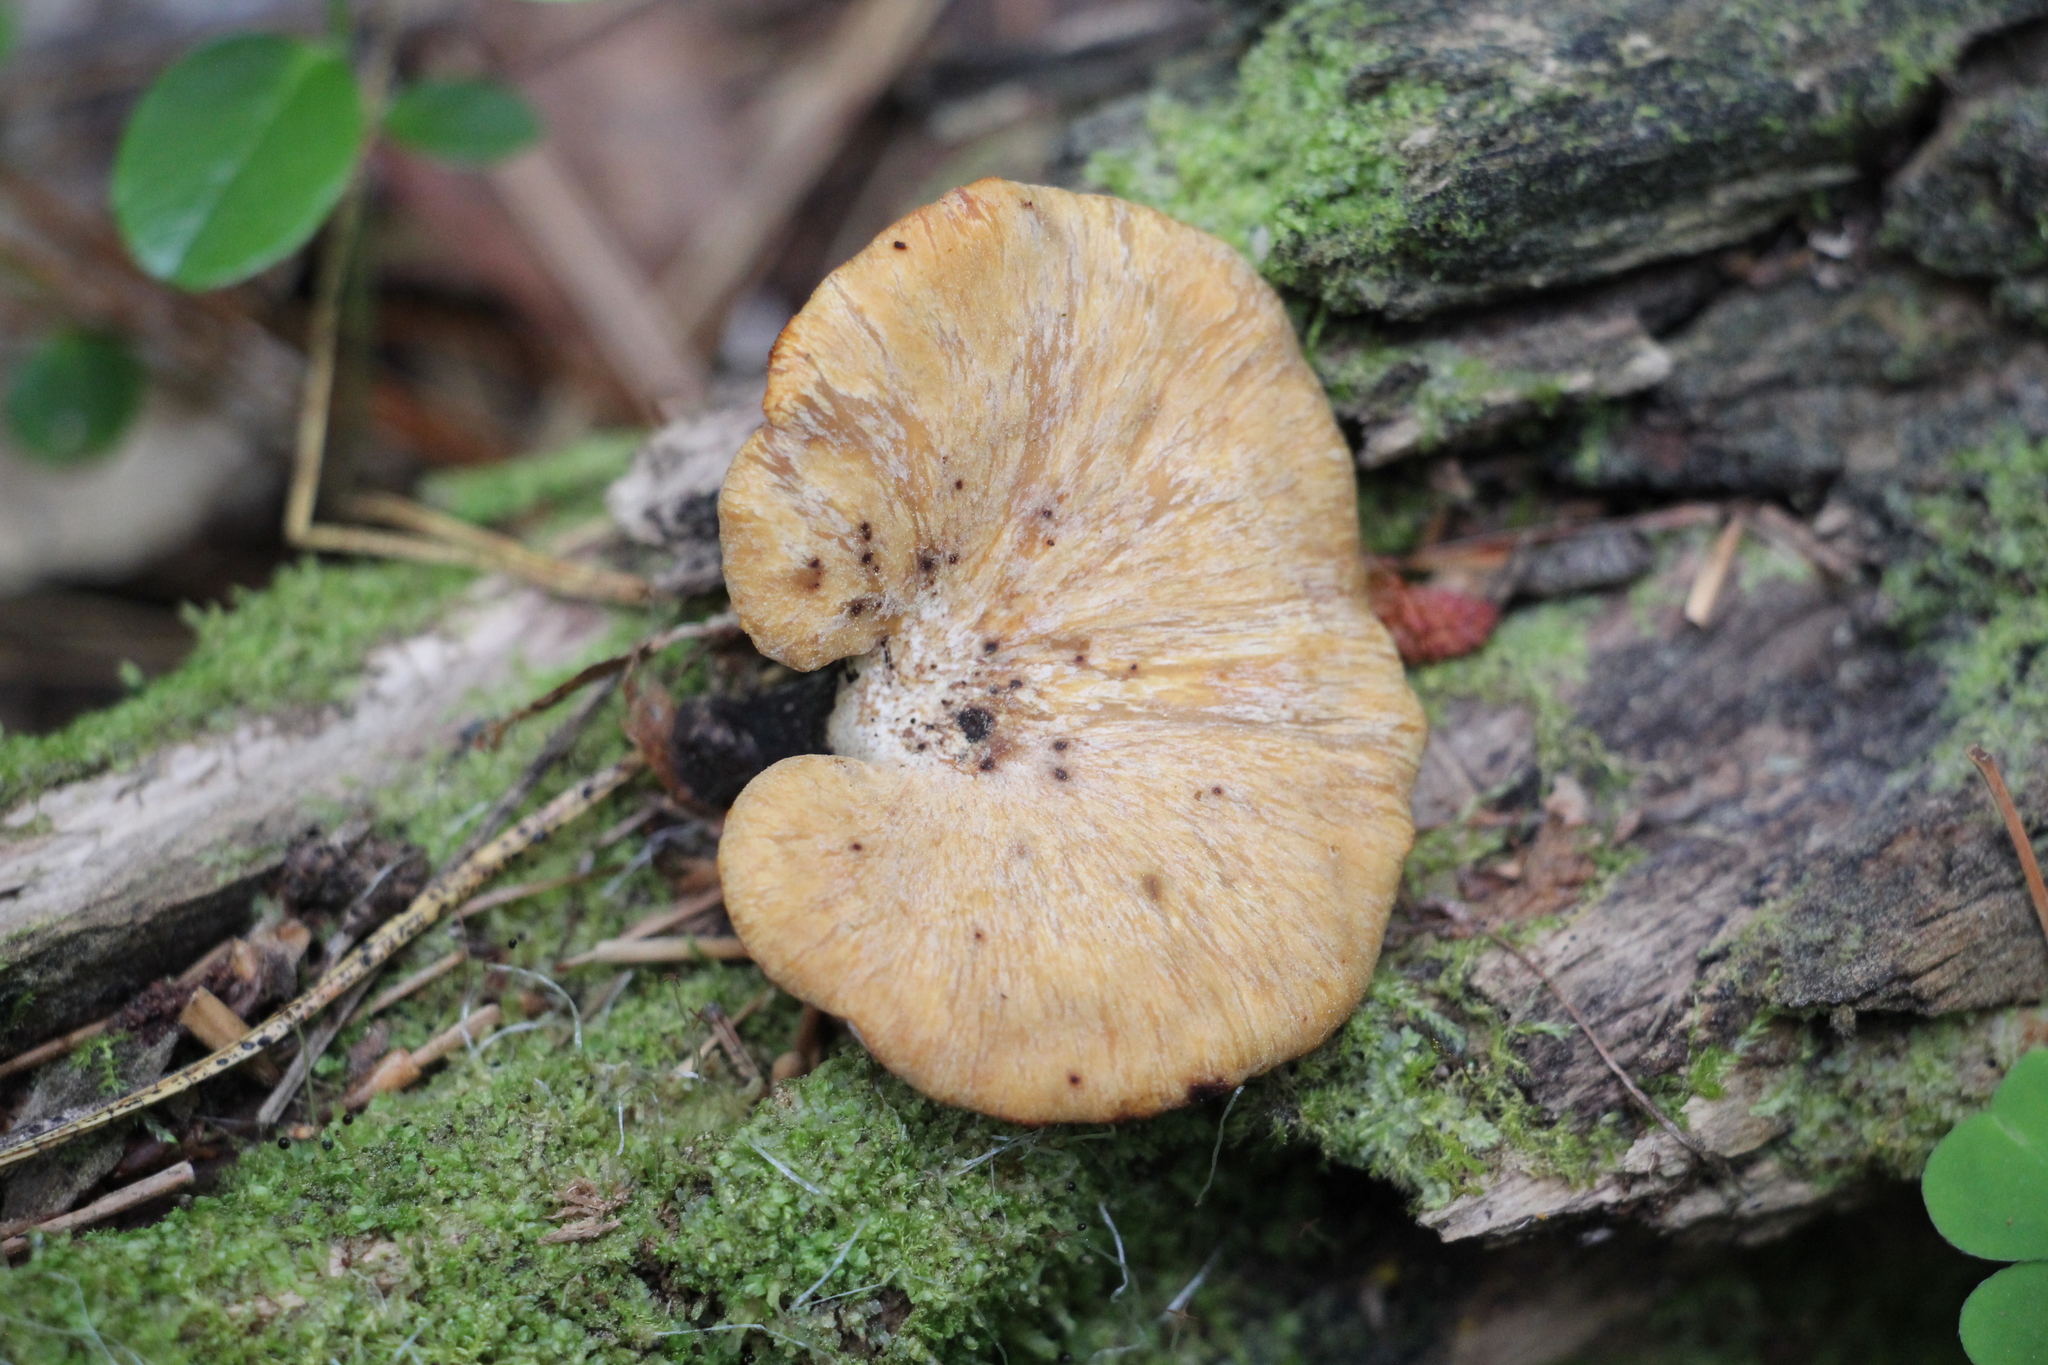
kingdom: Fungi
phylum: Basidiomycota
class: Agaricomycetes
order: Polyporales
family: Polyporaceae
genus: Cerioporus
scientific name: Cerioporus varius
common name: Elegant polypore
